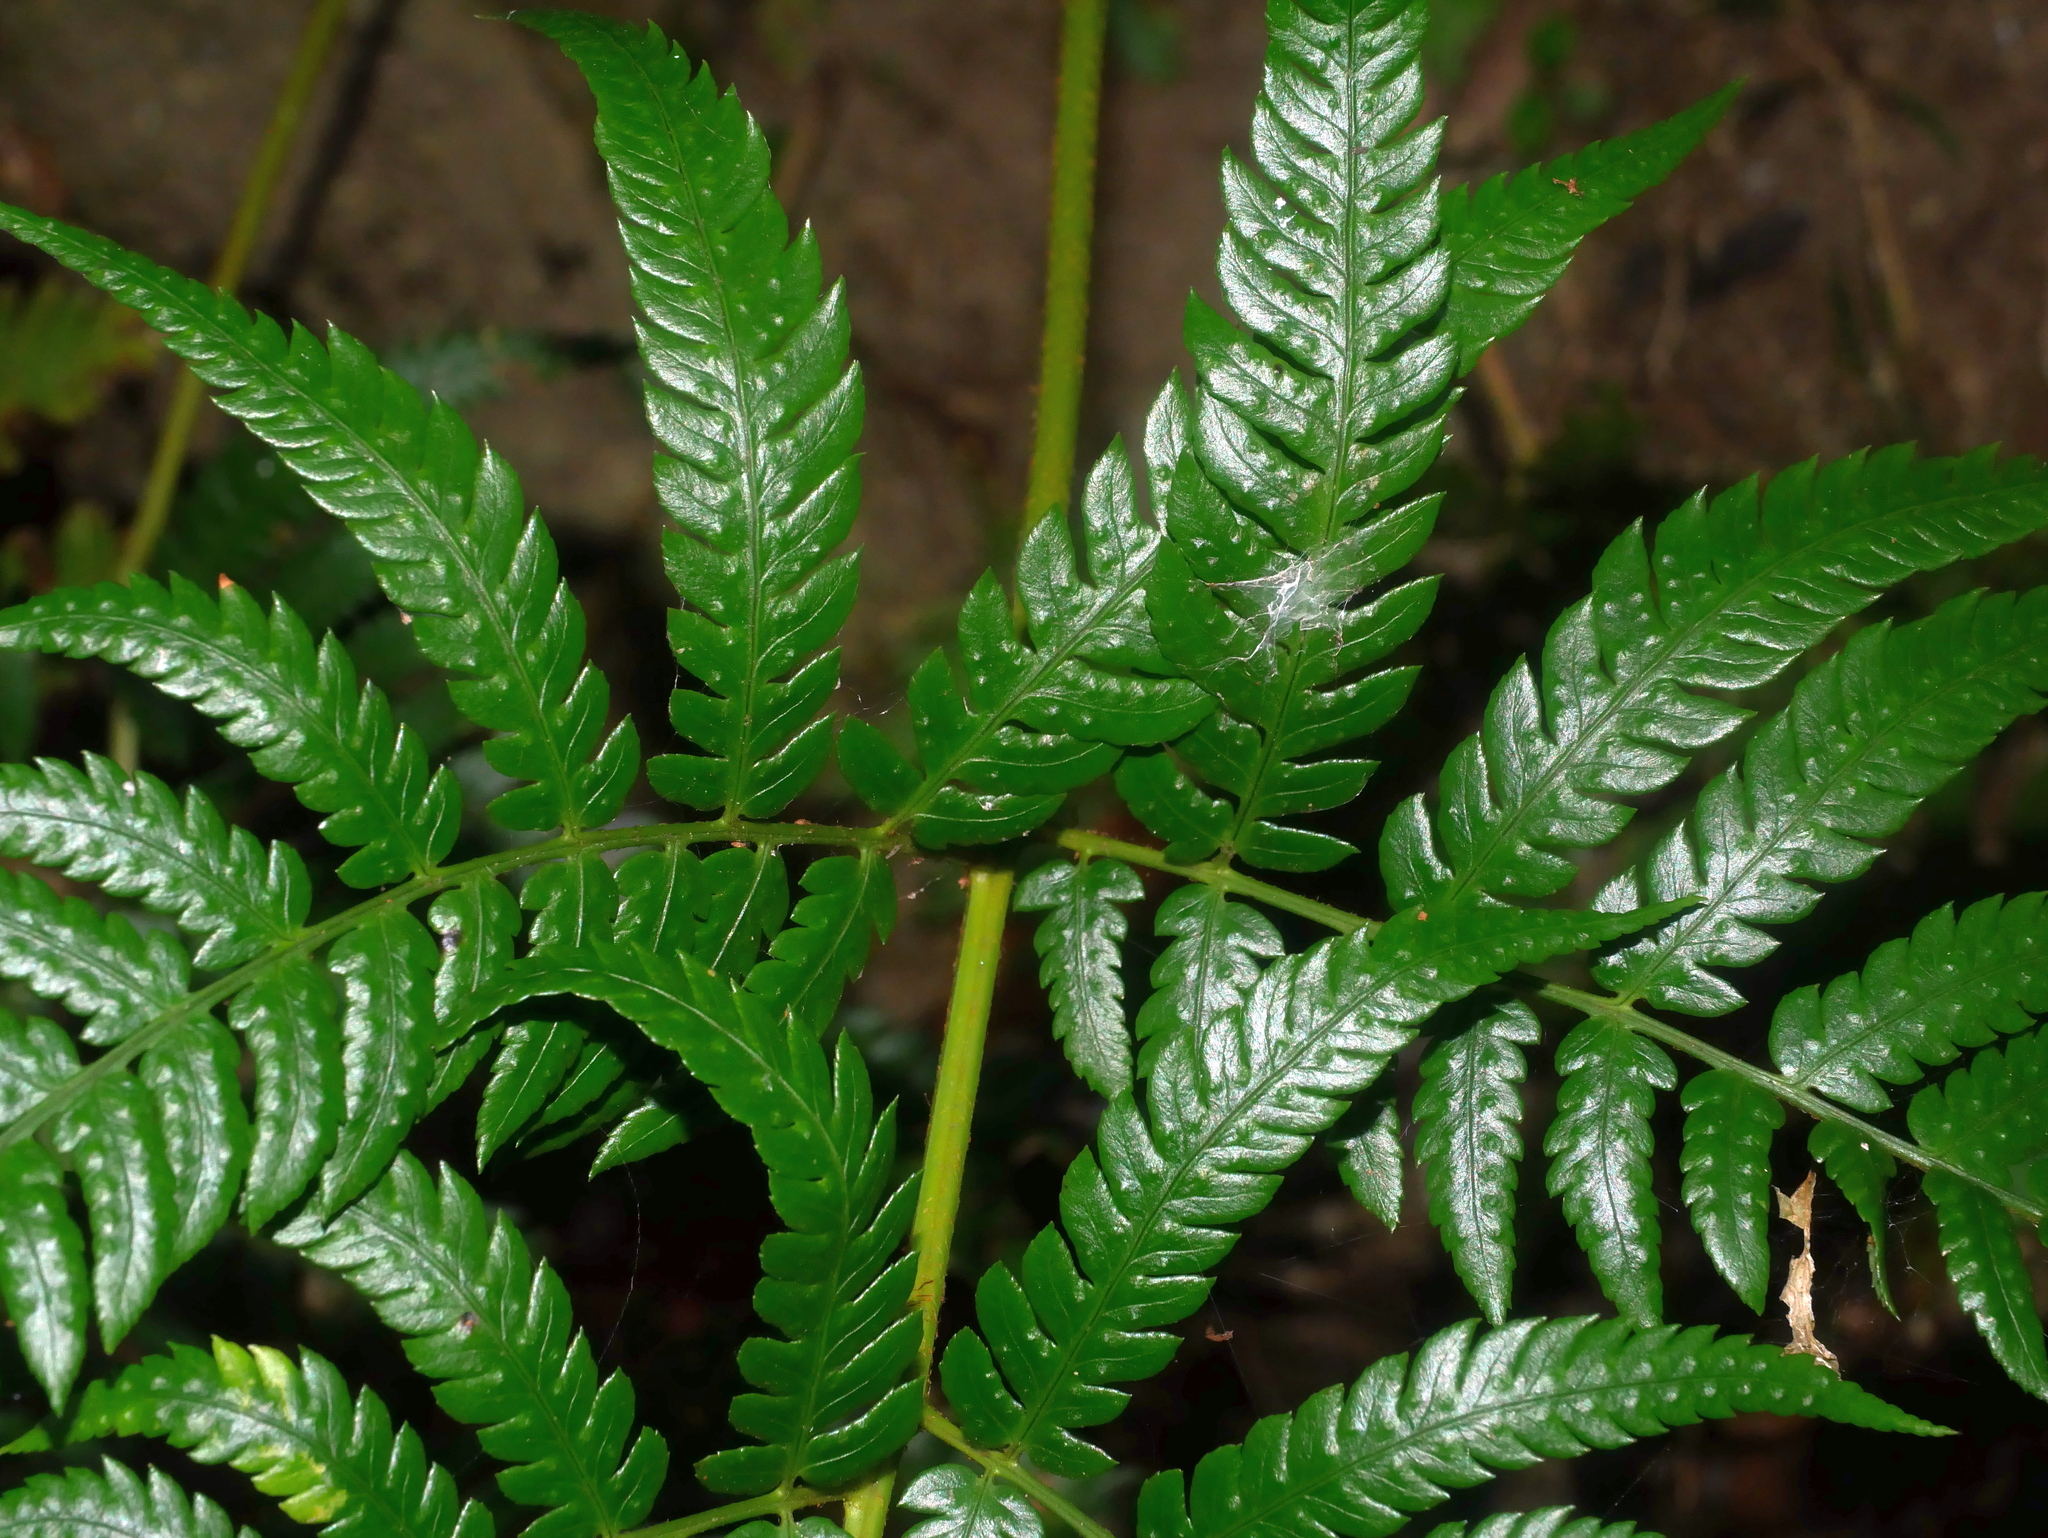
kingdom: Plantae
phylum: Tracheophyta
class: Polypodiopsida
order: Polypodiales
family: Dryopteridaceae
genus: Dryopteris
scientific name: Dryopteris varia
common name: Japanese holly fern
